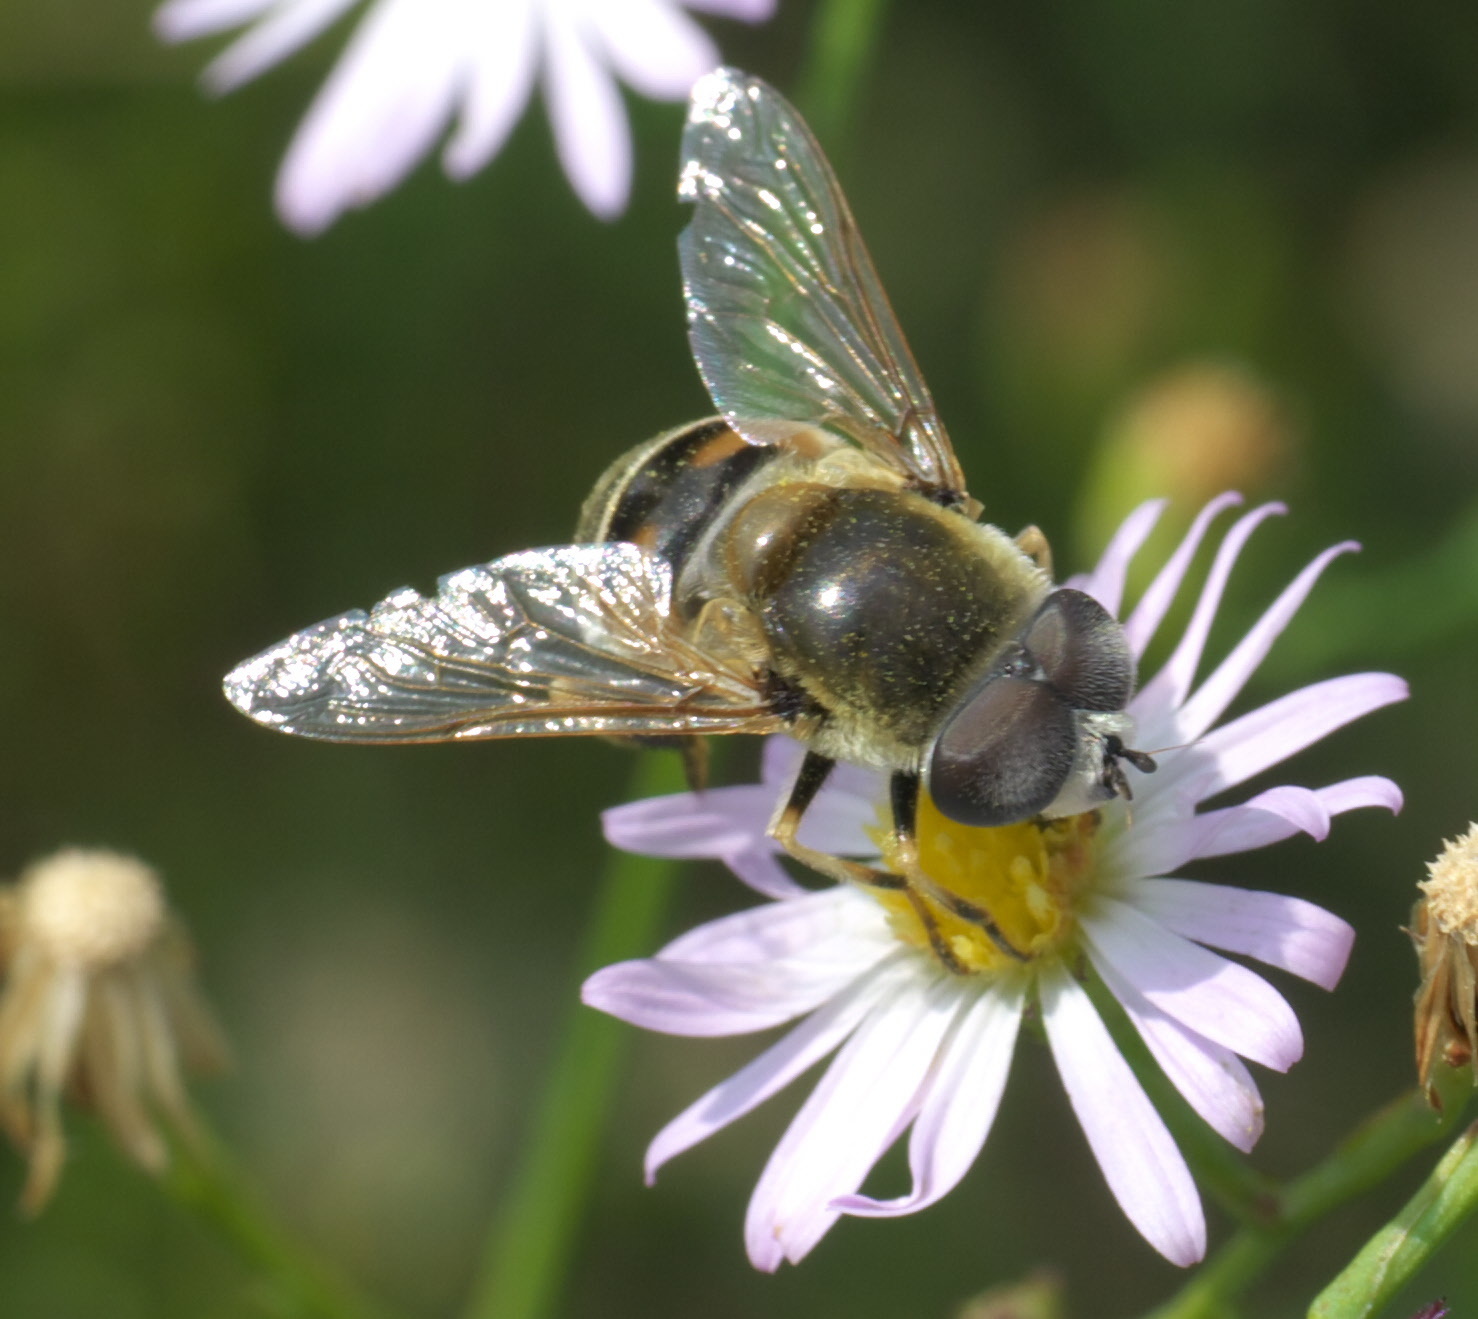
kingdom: Animalia
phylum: Arthropoda
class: Insecta
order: Diptera
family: Syrphidae
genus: Eristalis
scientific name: Eristalis stipator
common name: Yellow-shouldered drone fly
